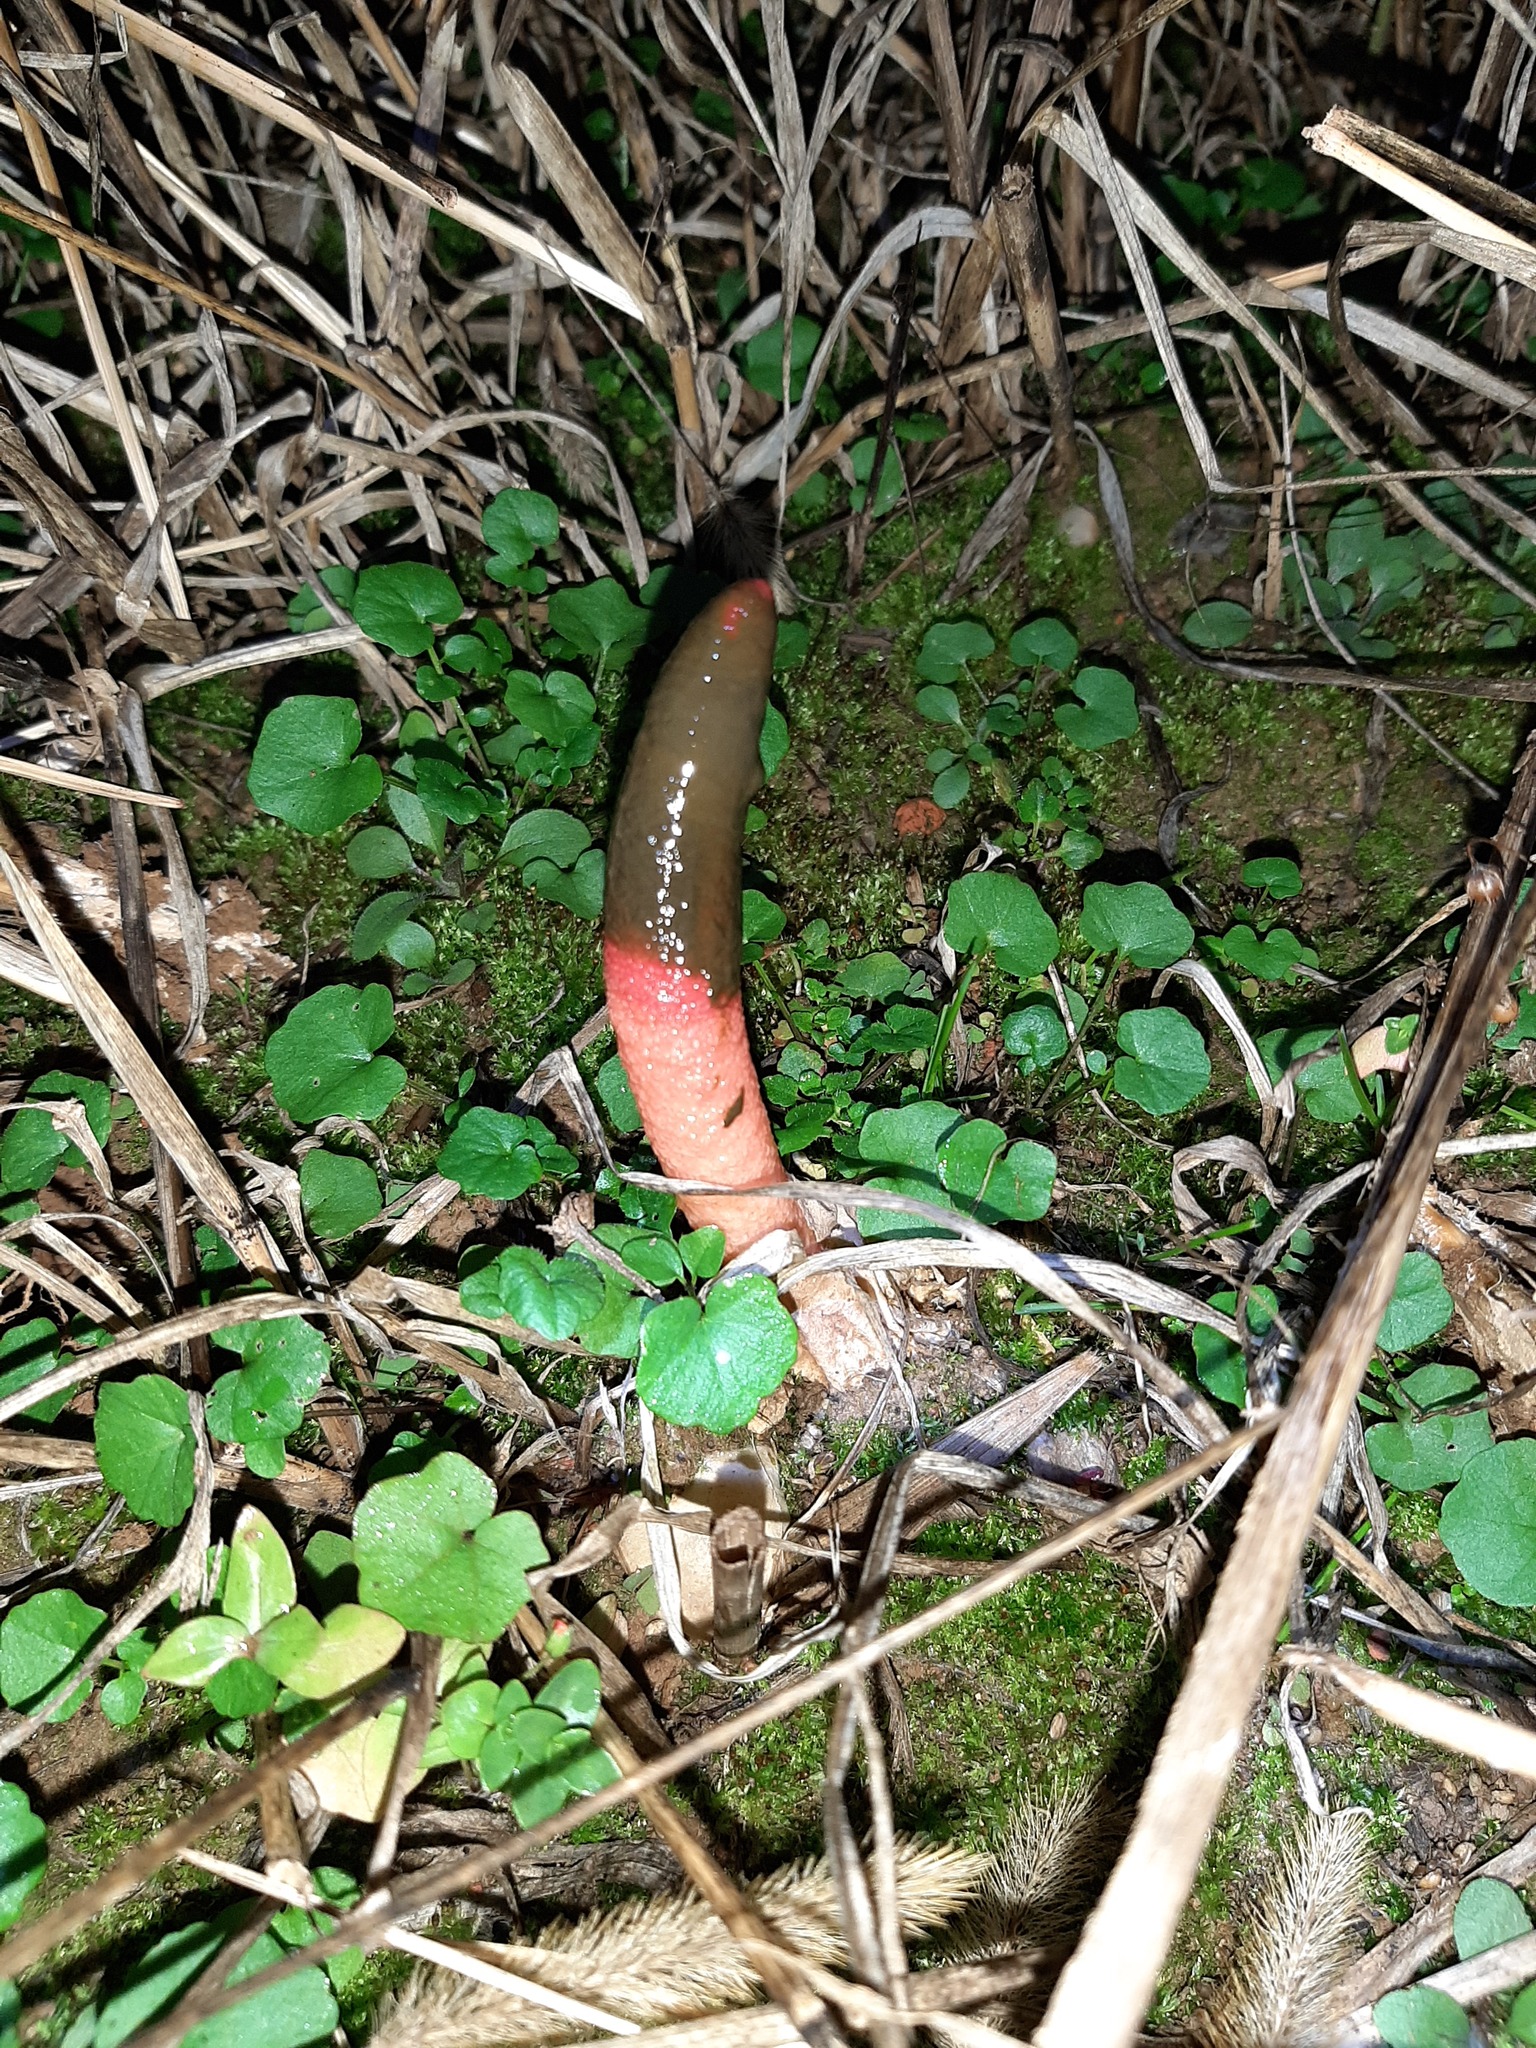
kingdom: Fungi
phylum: Basidiomycota
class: Agaricomycetes
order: Phallales
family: Phallaceae
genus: Mutinus
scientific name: Mutinus elegans
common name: Devil's dipstick
